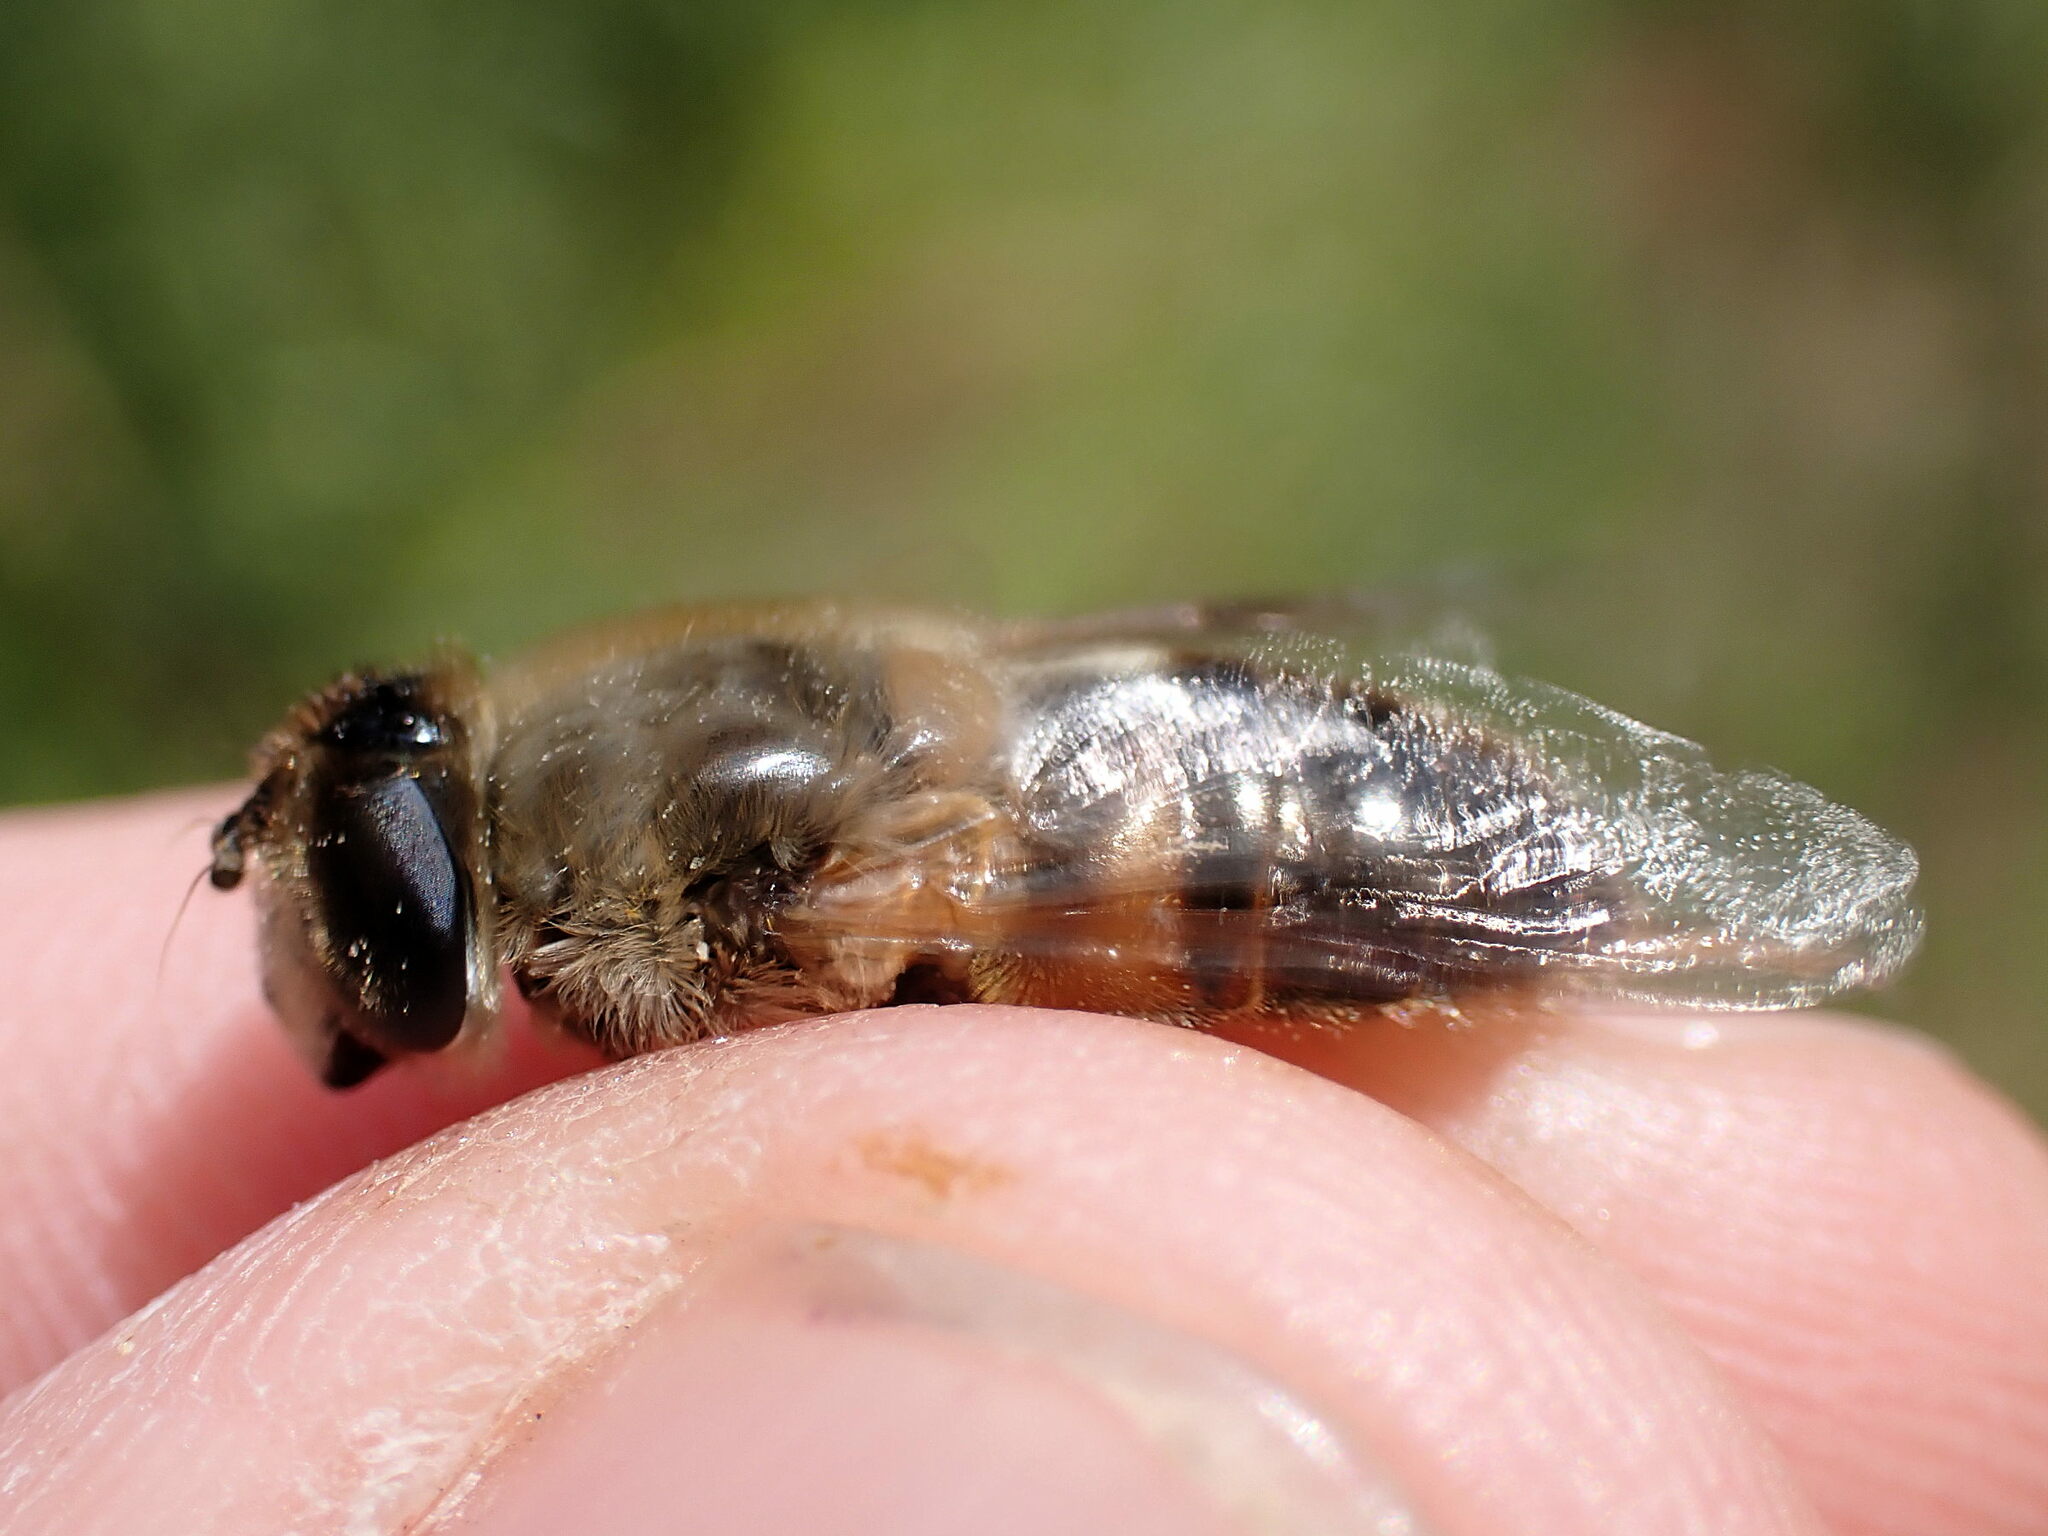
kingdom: Animalia
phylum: Arthropoda
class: Insecta
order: Diptera
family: Syrphidae
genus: Eristalis
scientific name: Eristalis tenax
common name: Drone fly
